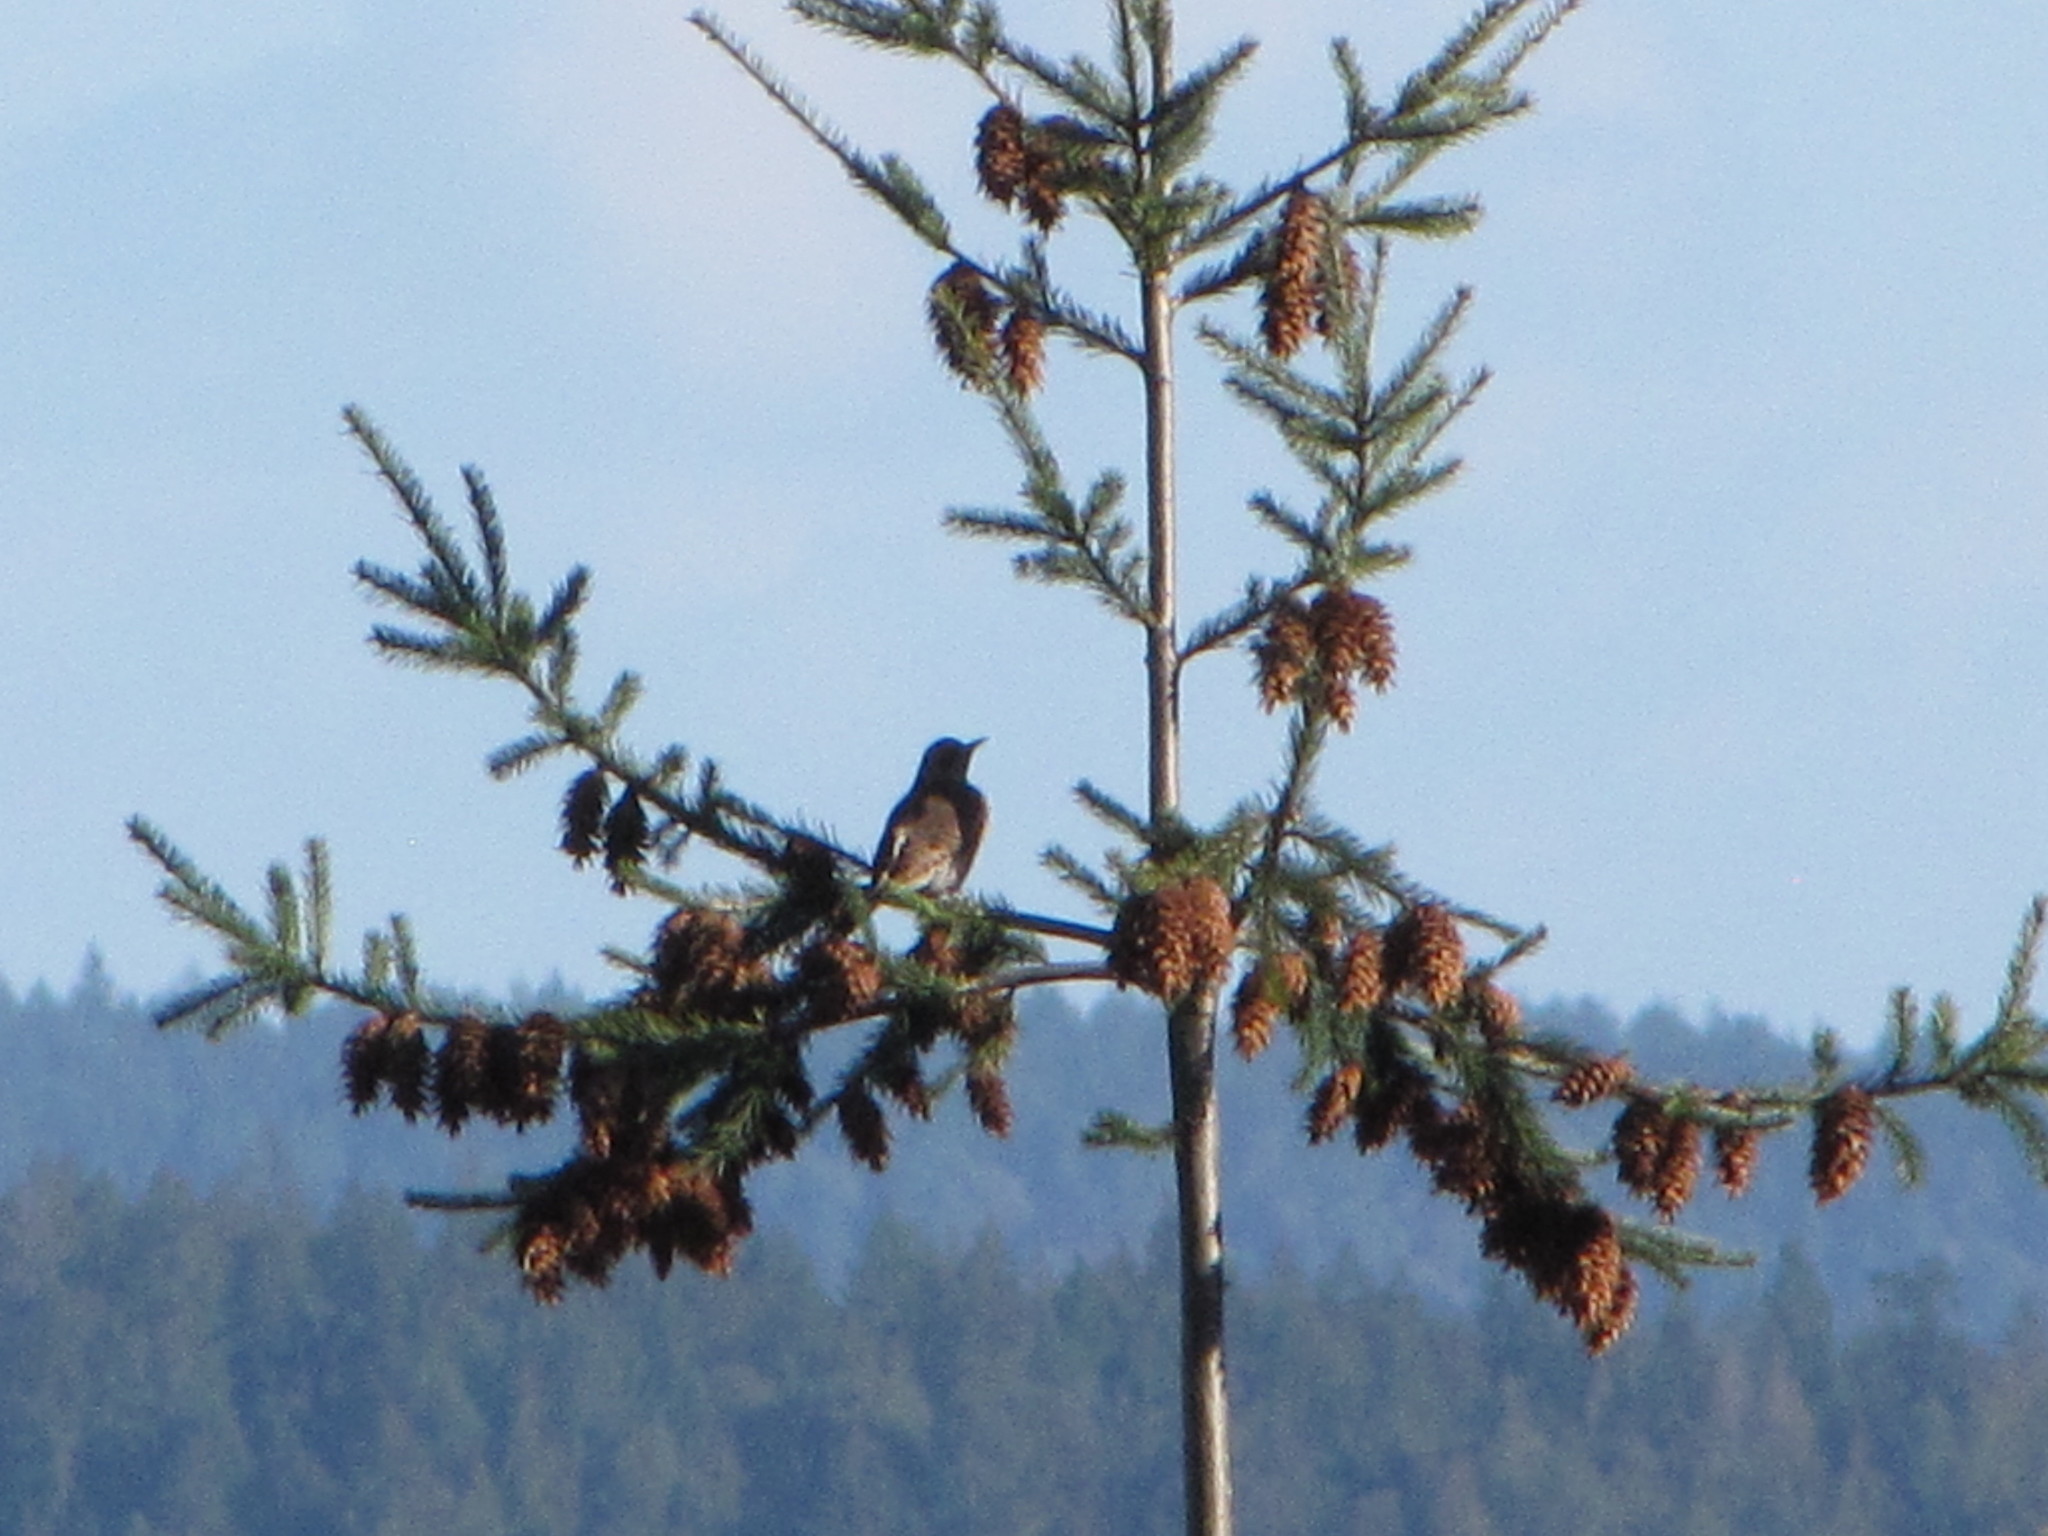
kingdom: Animalia
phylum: Chordata
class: Aves
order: Piciformes
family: Picidae
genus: Colaptes
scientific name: Colaptes auratus
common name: Northern flicker
